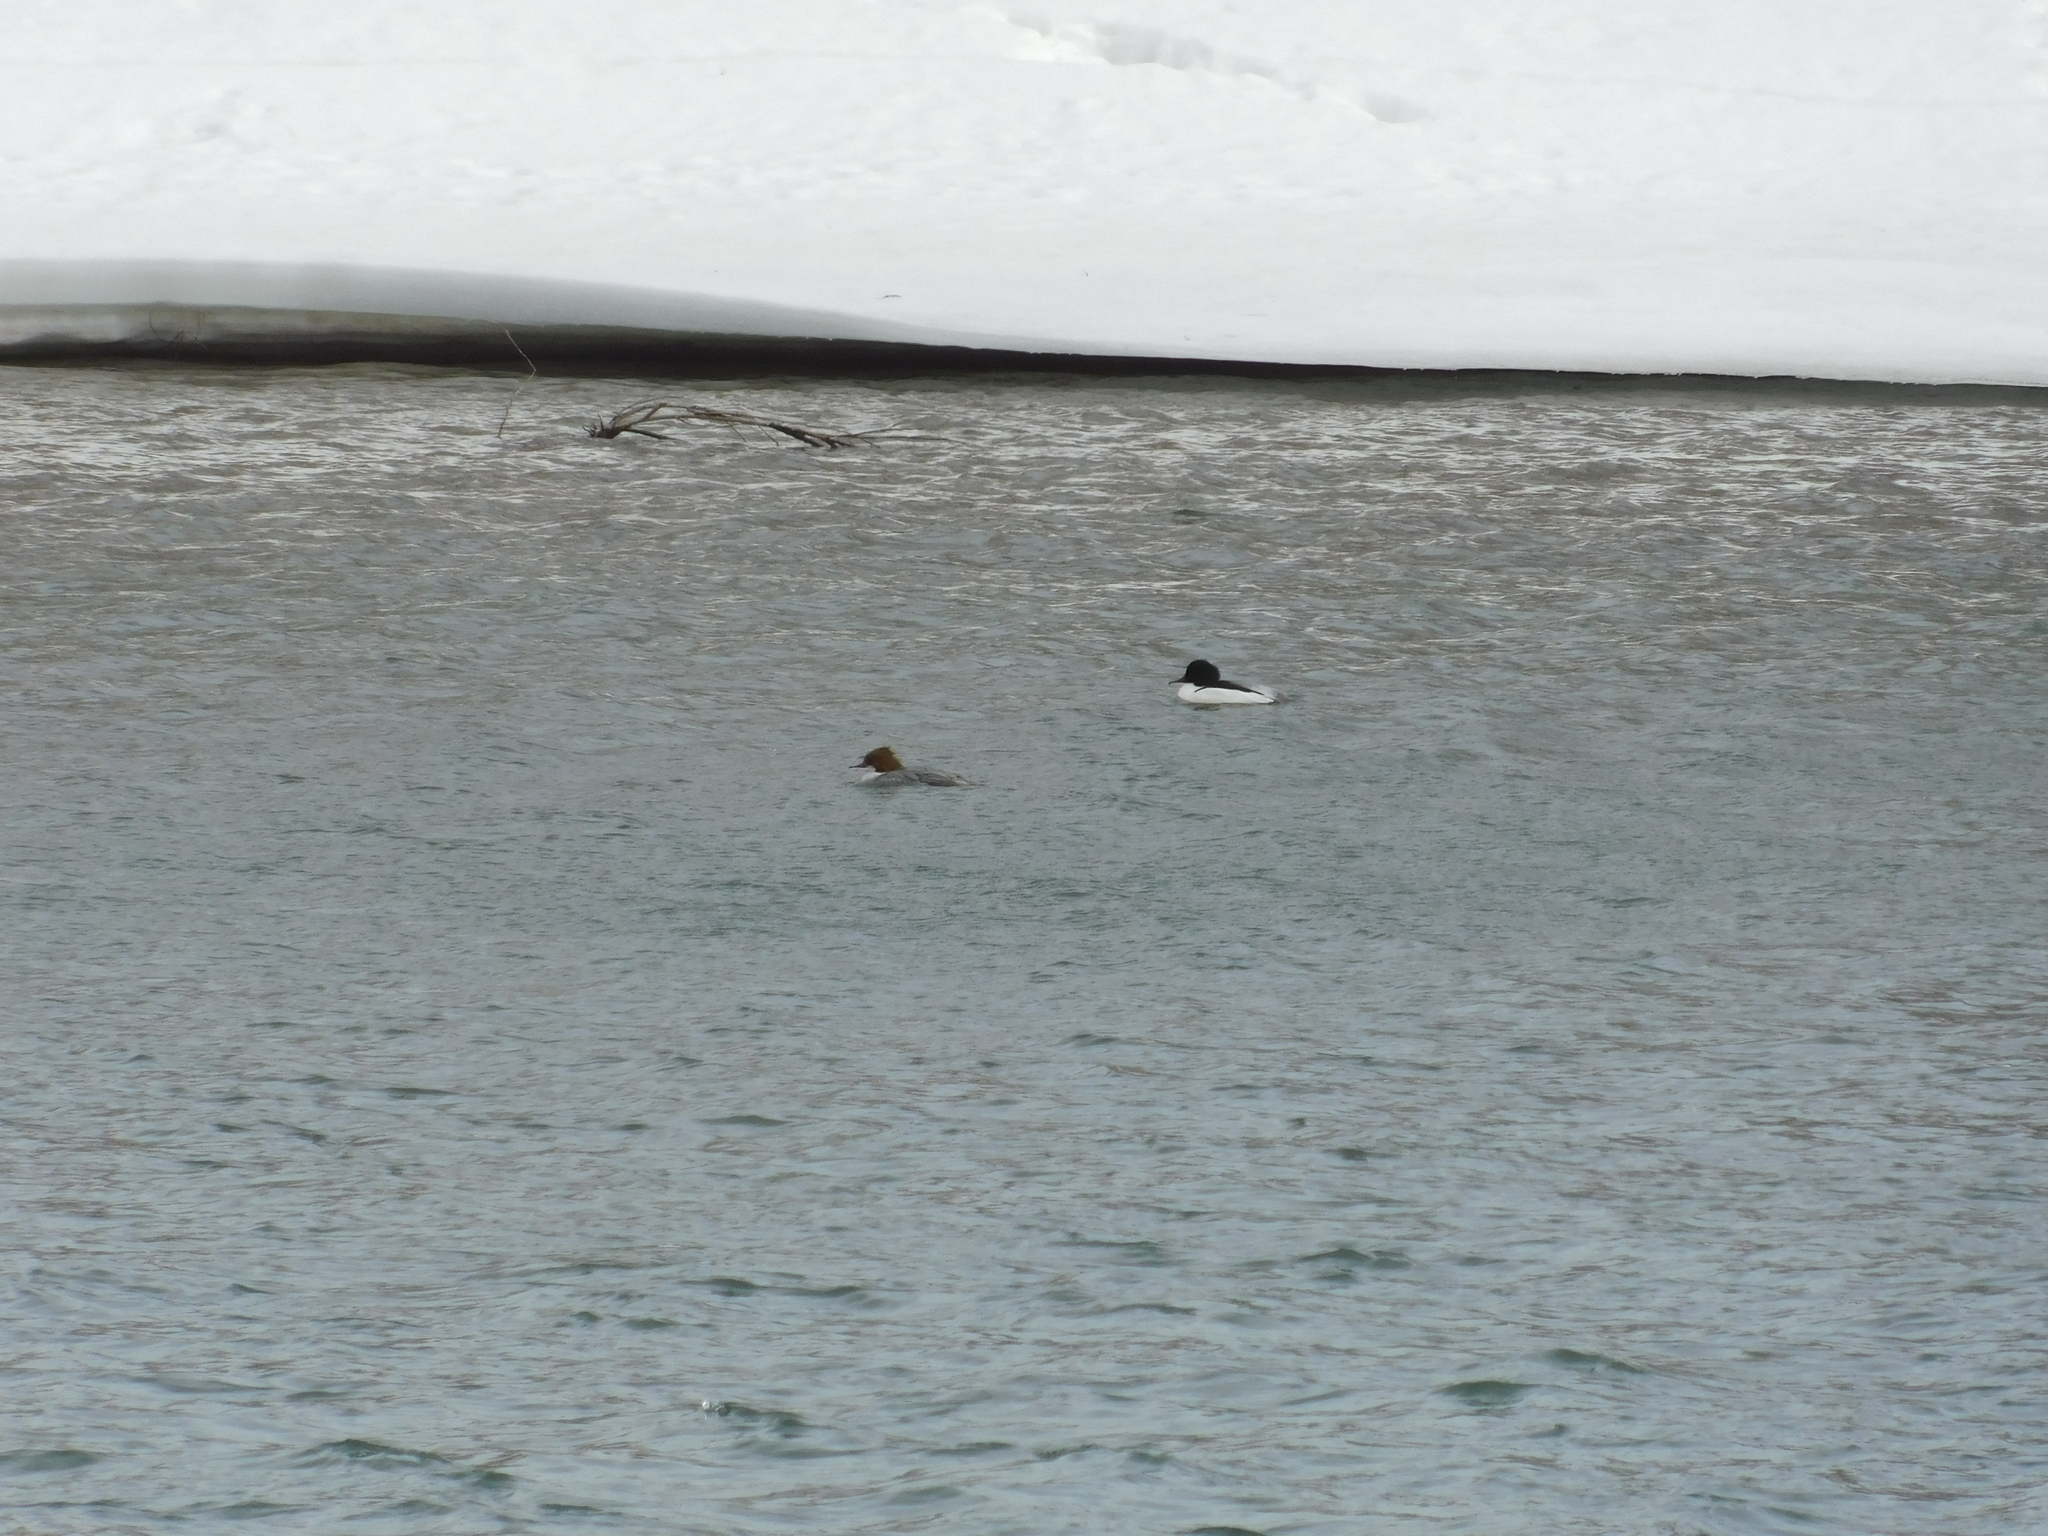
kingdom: Animalia
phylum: Chordata
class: Aves
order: Anseriformes
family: Anatidae
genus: Mergus
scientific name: Mergus merganser
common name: Common merganser
